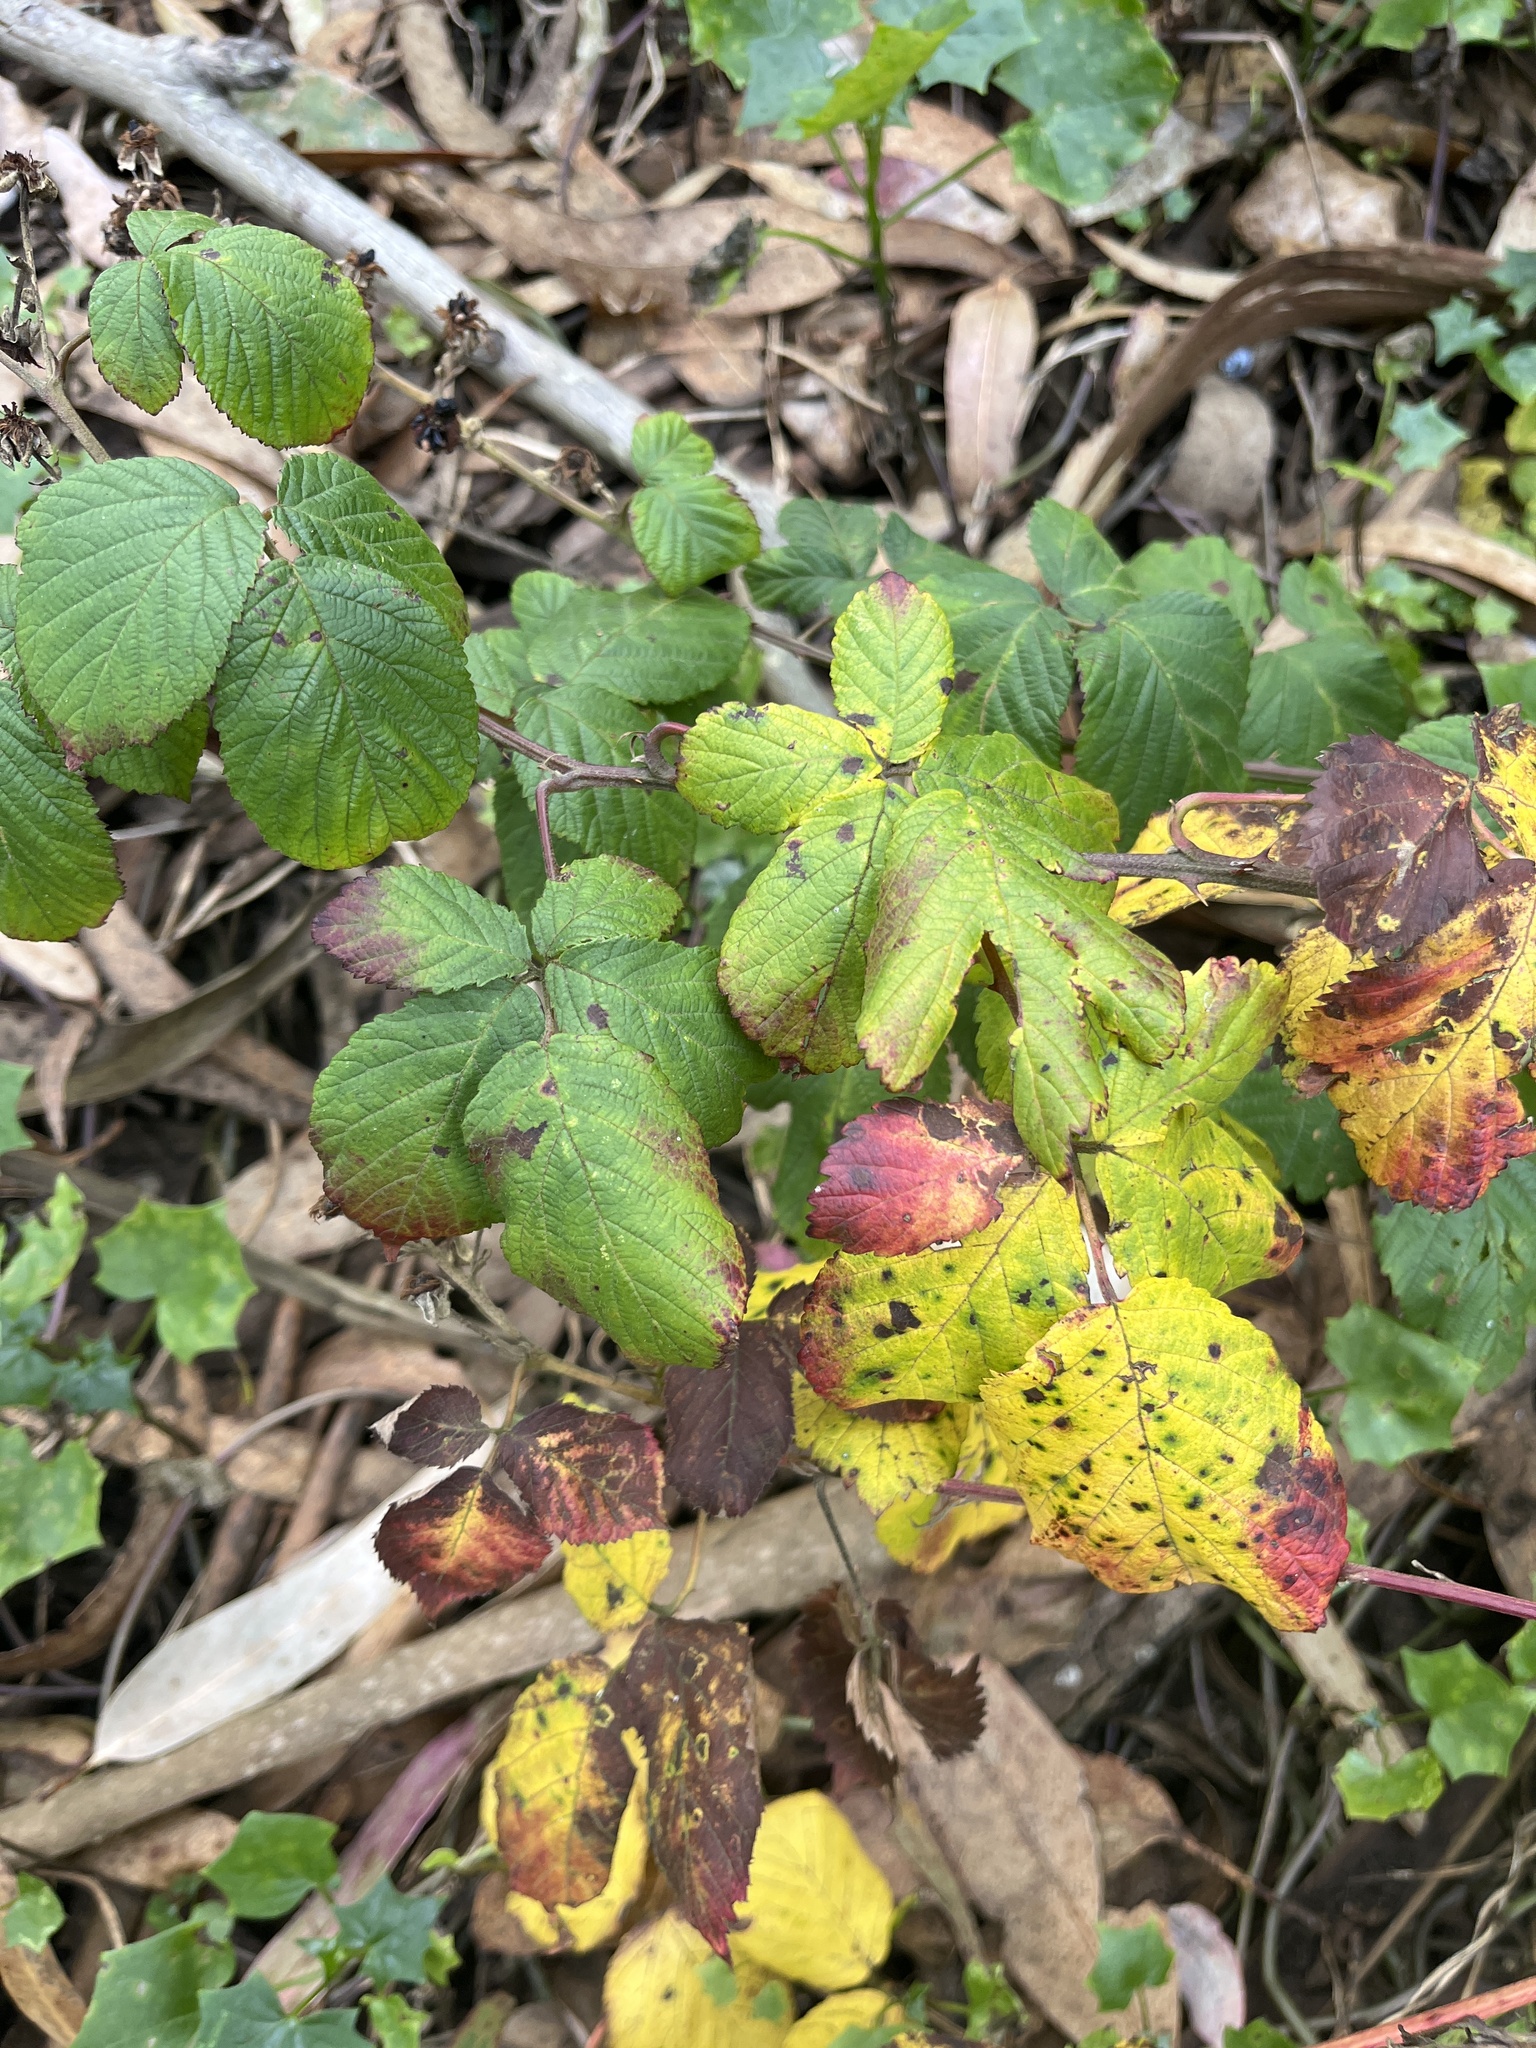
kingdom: Plantae
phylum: Tracheophyta
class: Magnoliopsida
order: Sapindales
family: Anacardiaceae
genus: Toxicodendron
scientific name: Toxicodendron diversilobum
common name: Pacific poison-oak
